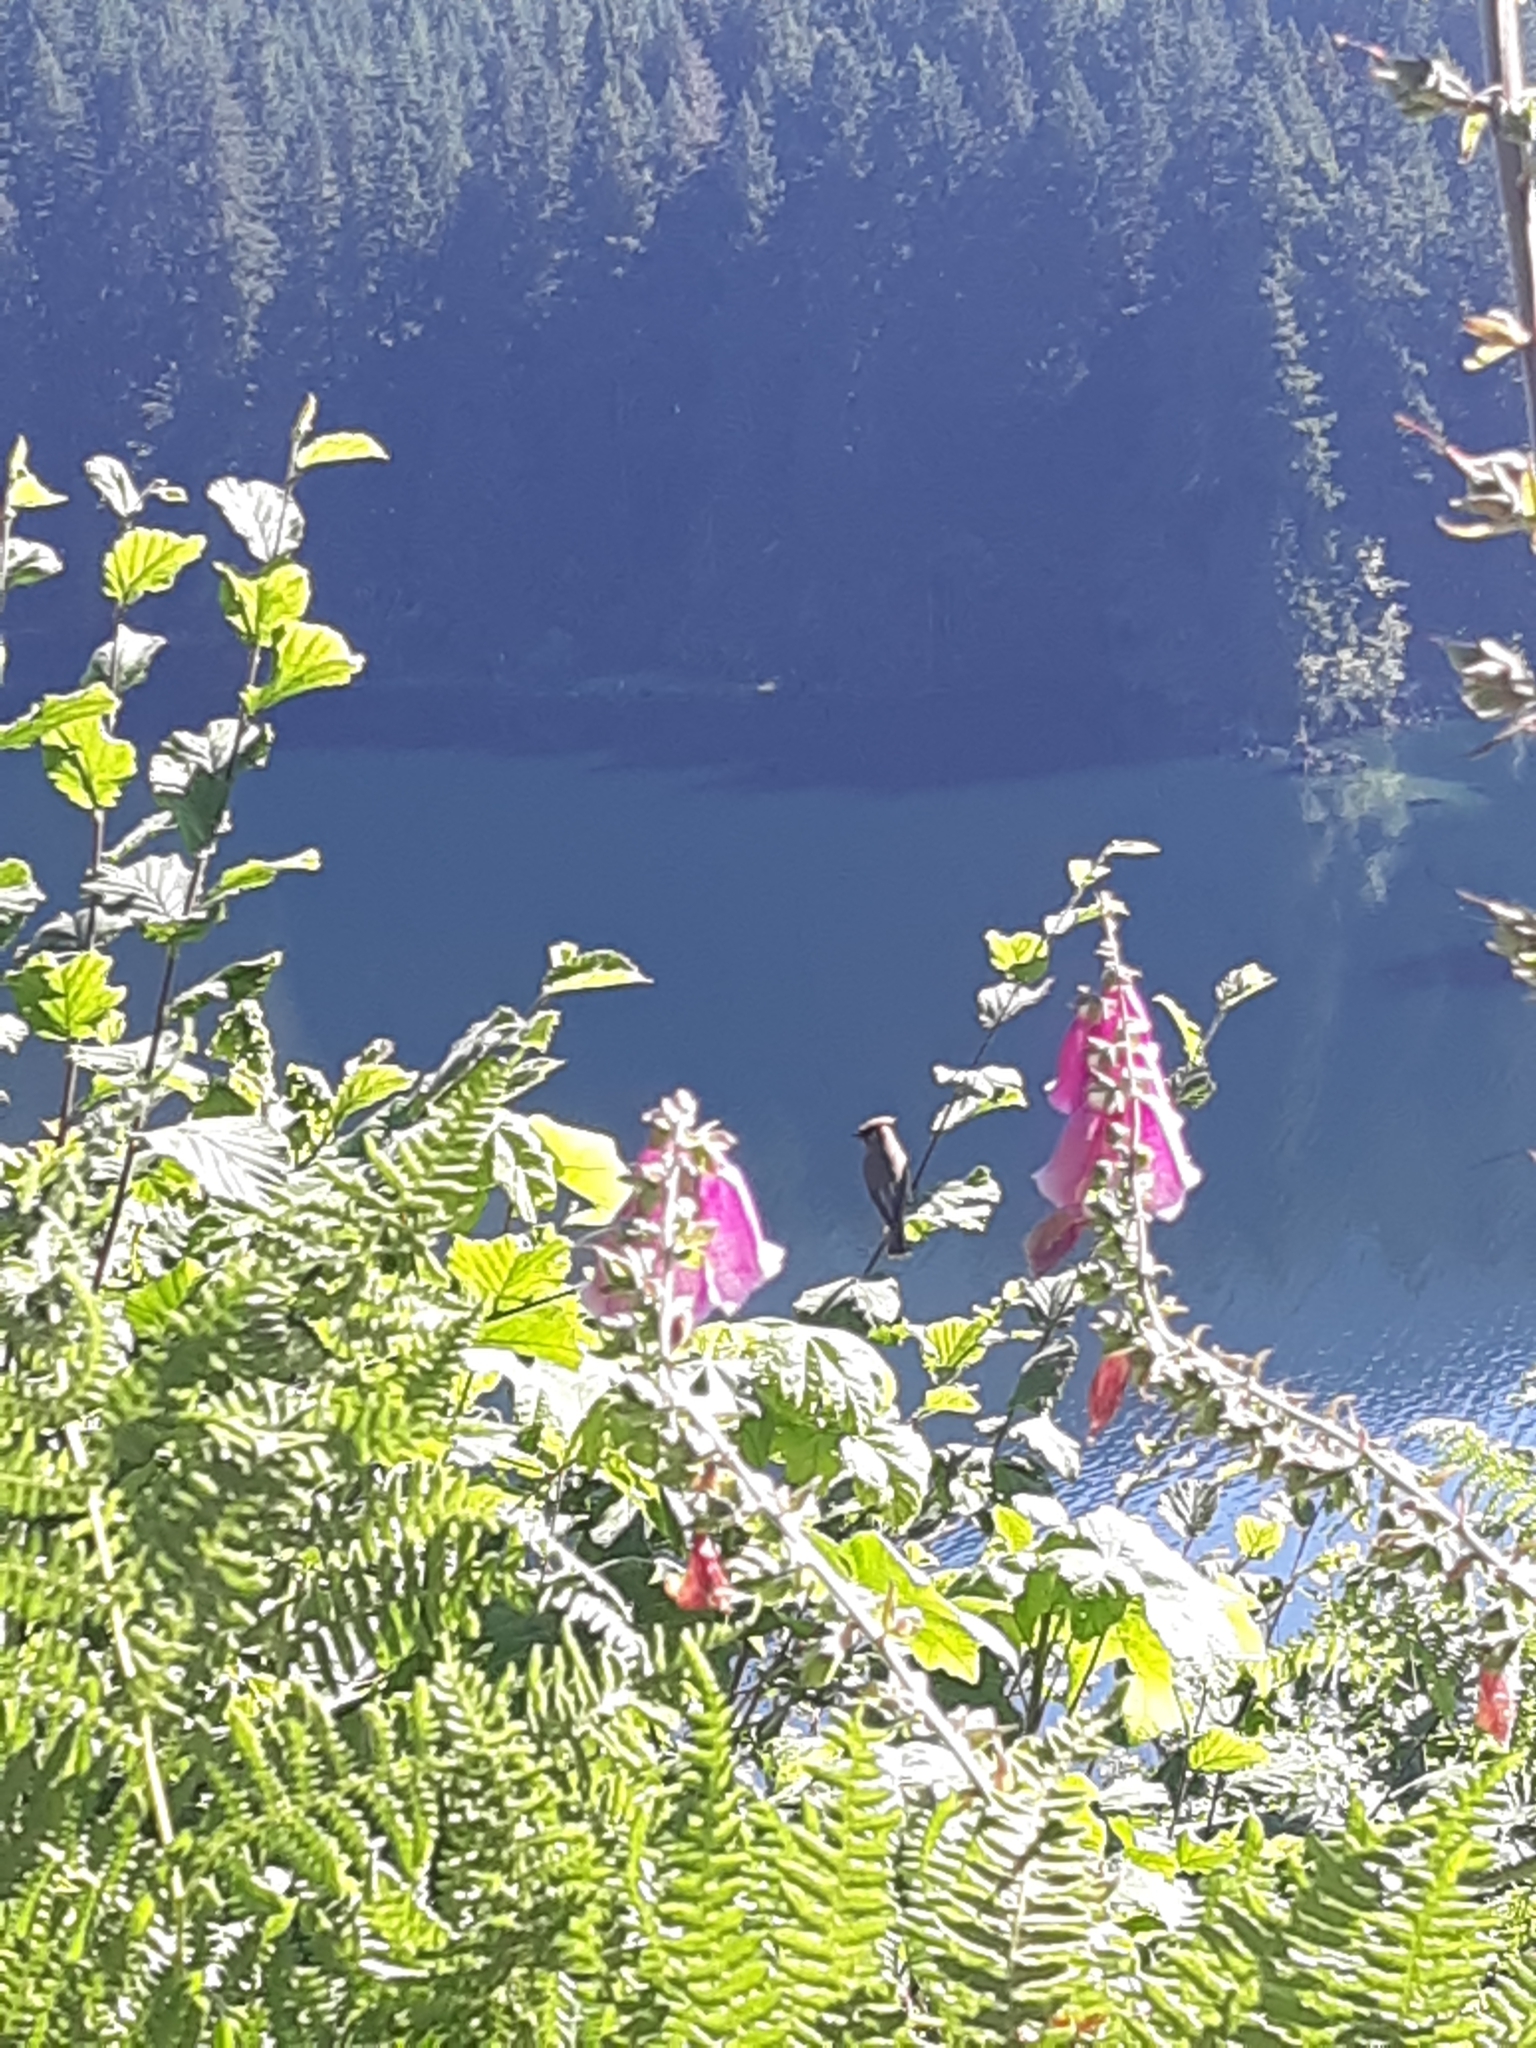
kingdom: Animalia
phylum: Chordata
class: Aves
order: Passeriformes
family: Bombycillidae
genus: Bombycilla
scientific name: Bombycilla cedrorum
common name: Cedar waxwing
